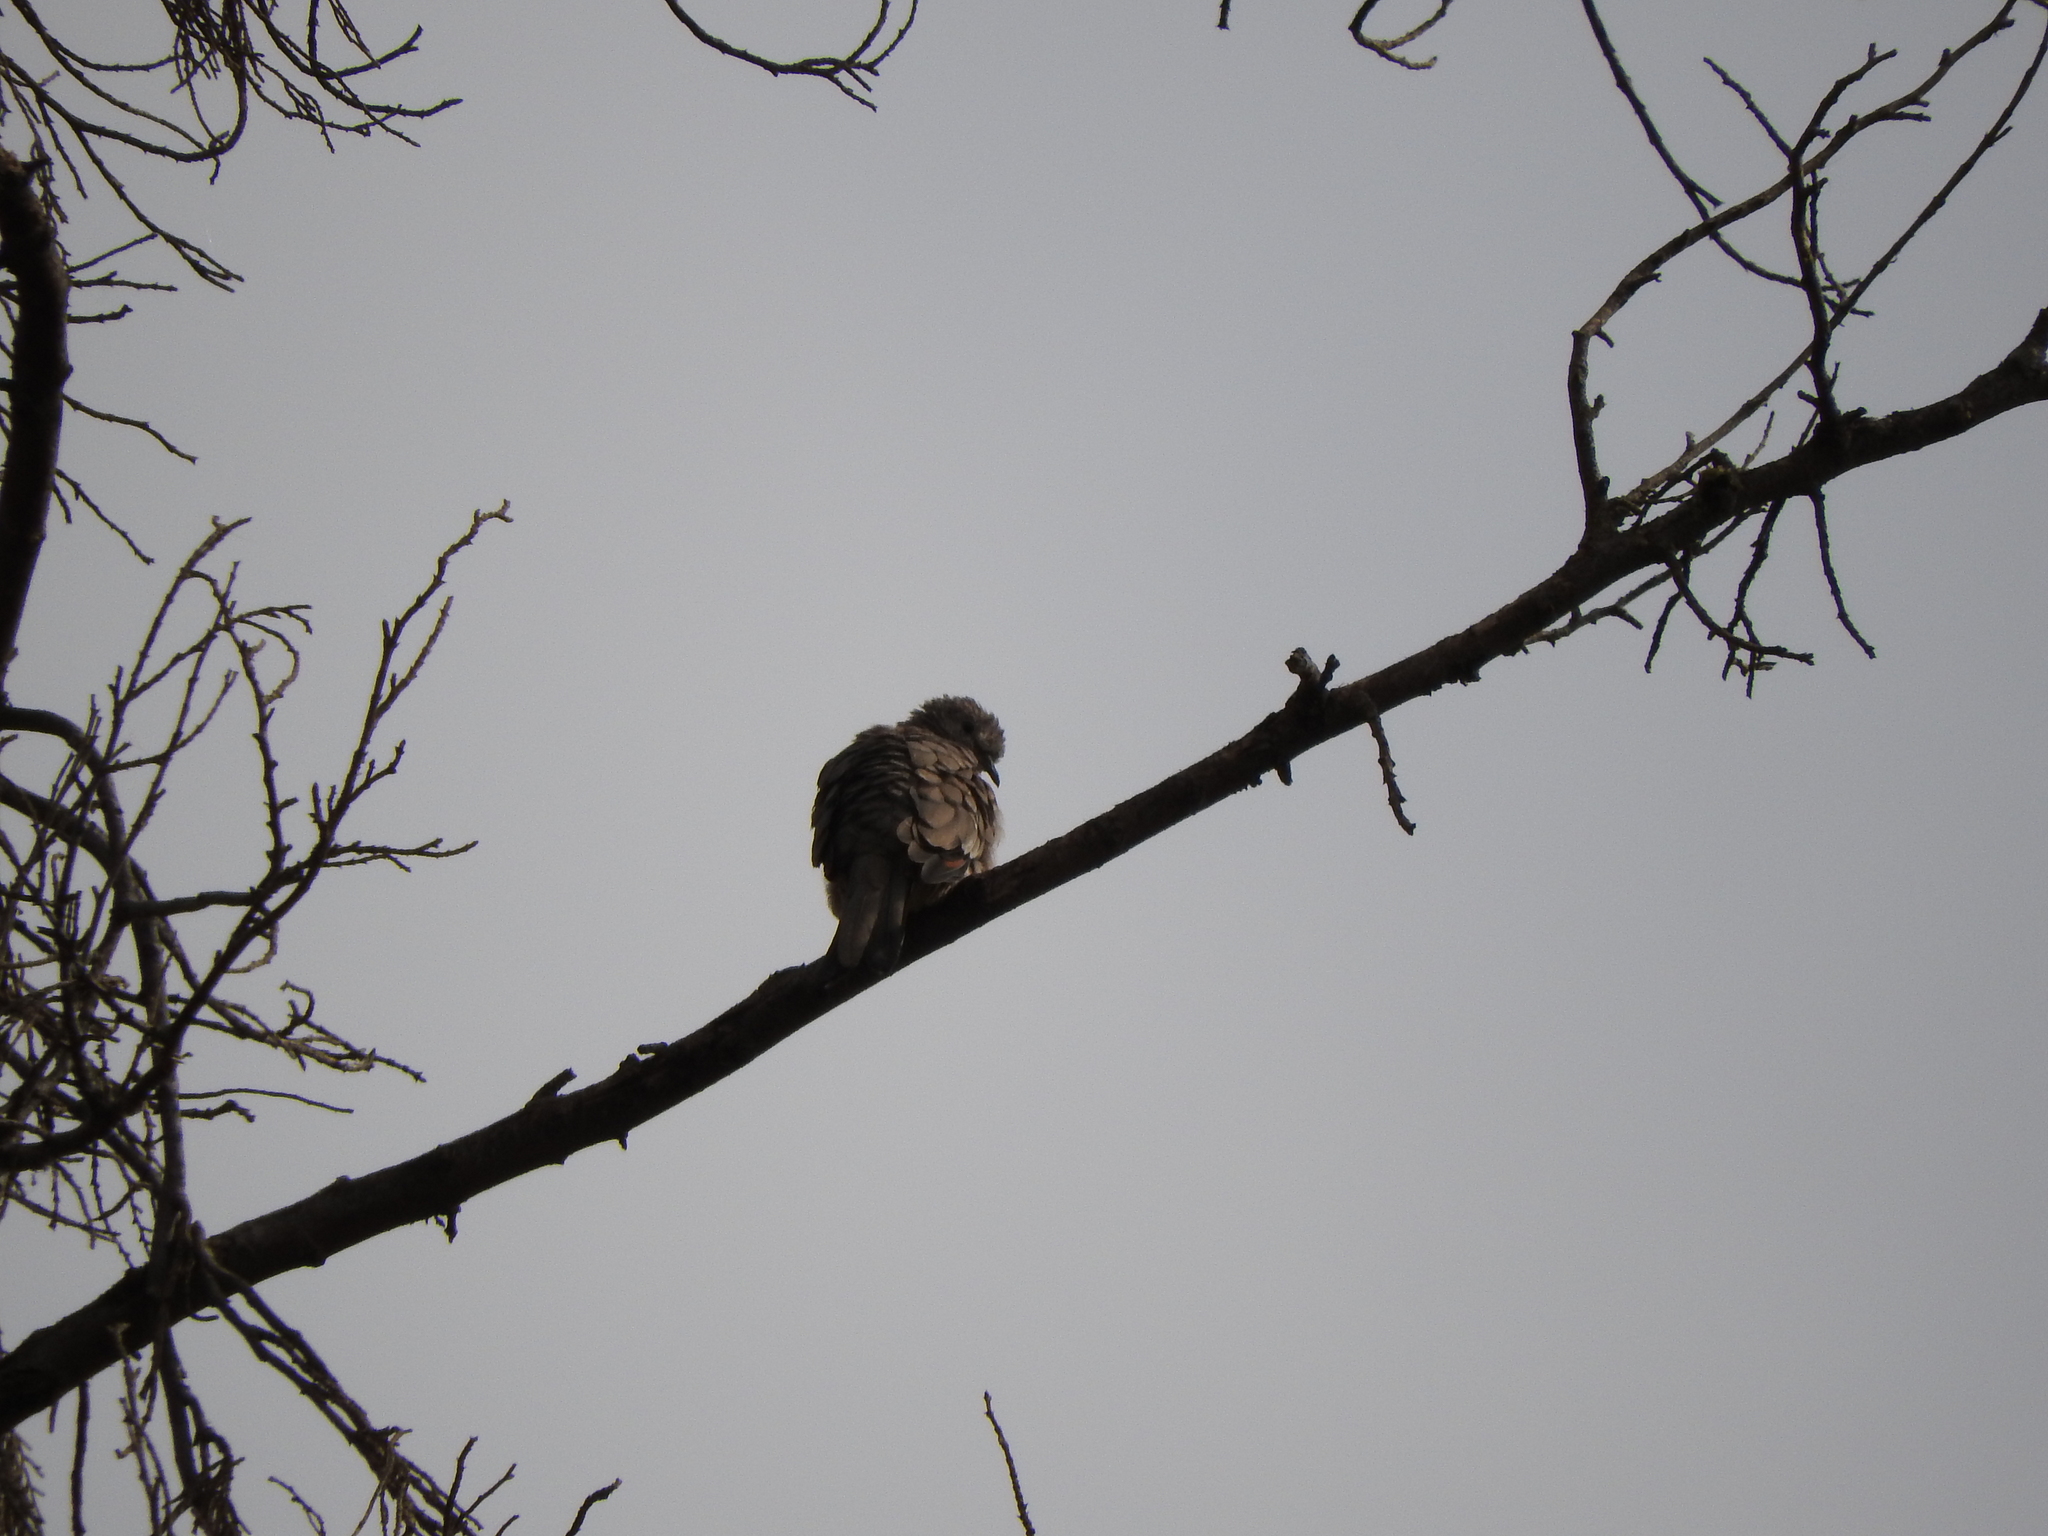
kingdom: Animalia
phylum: Chordata
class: Aves
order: Columbiformes
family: Columbidae
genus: Columbina
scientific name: Columbina inca
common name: Inca dove
